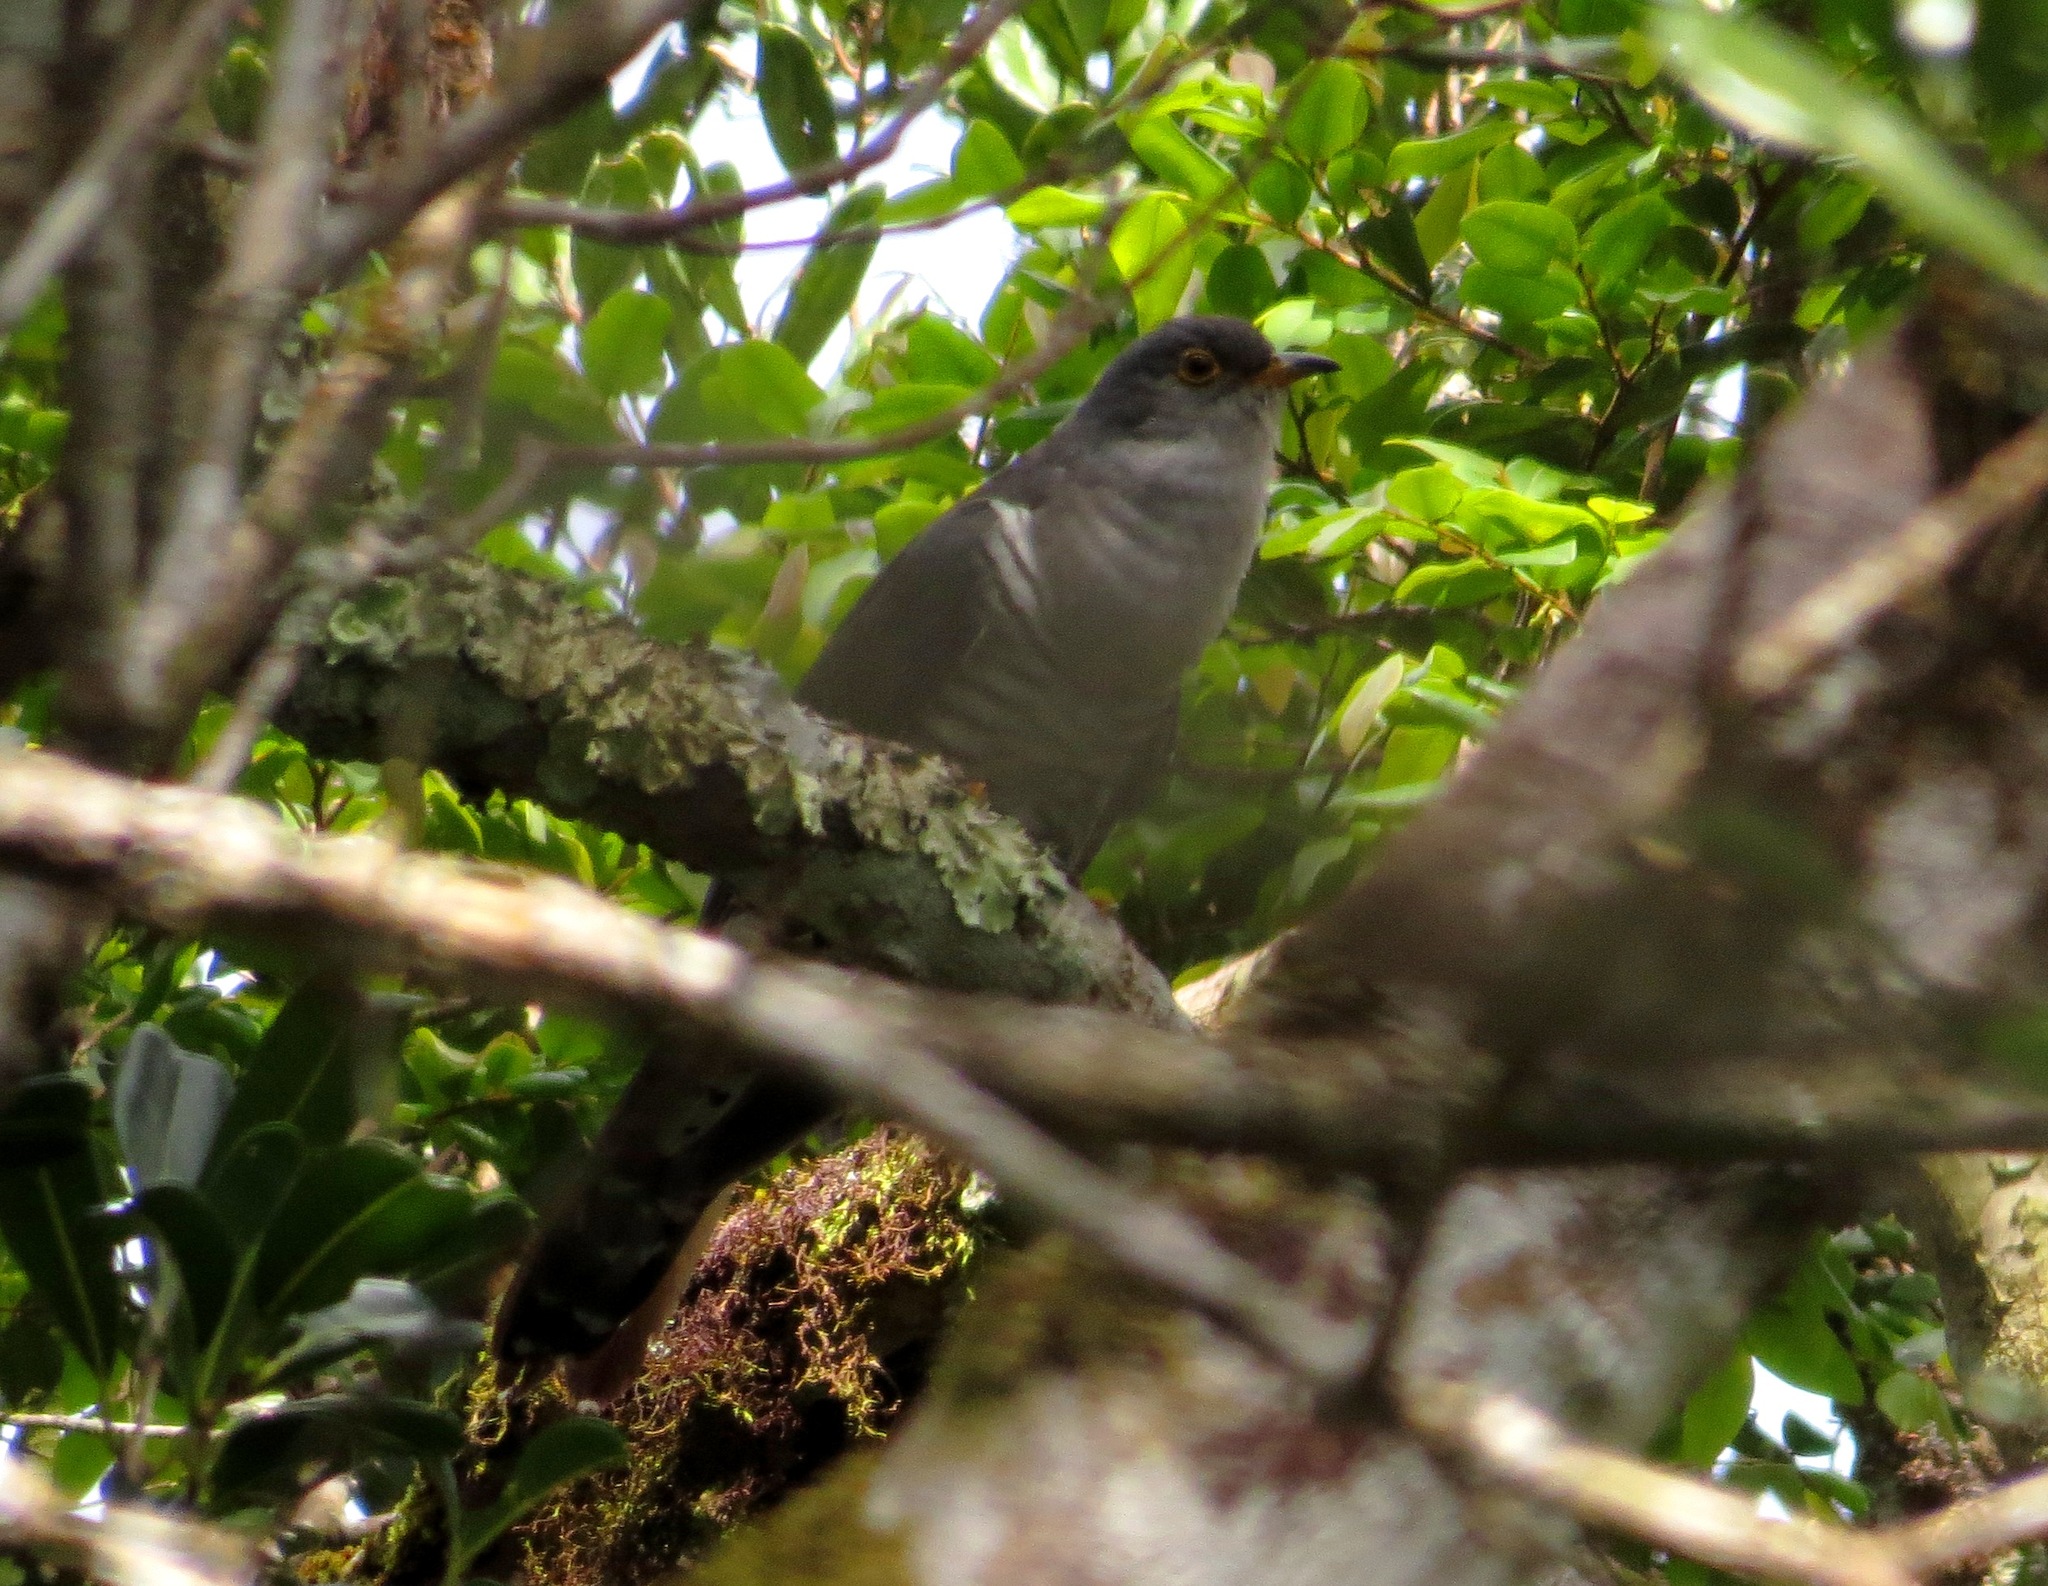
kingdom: Animalia
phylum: Chordata
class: Aves
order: Cuculiformes
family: Cuculidae
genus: Cuculus
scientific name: Cuculus rochii
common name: Madagascar cuckoo
